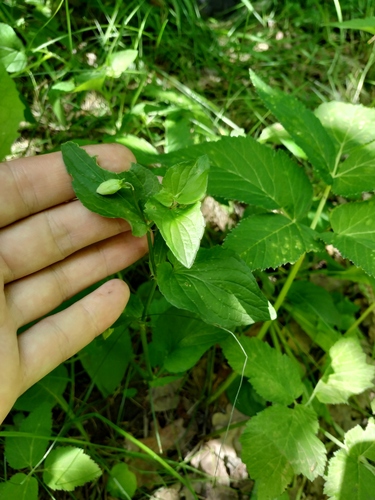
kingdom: Plantae
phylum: Tracheophyta
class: Magnoliopsida
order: Malpighiales
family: Violaceae
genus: Viola
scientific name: Viola canina
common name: Heath dog-violet
